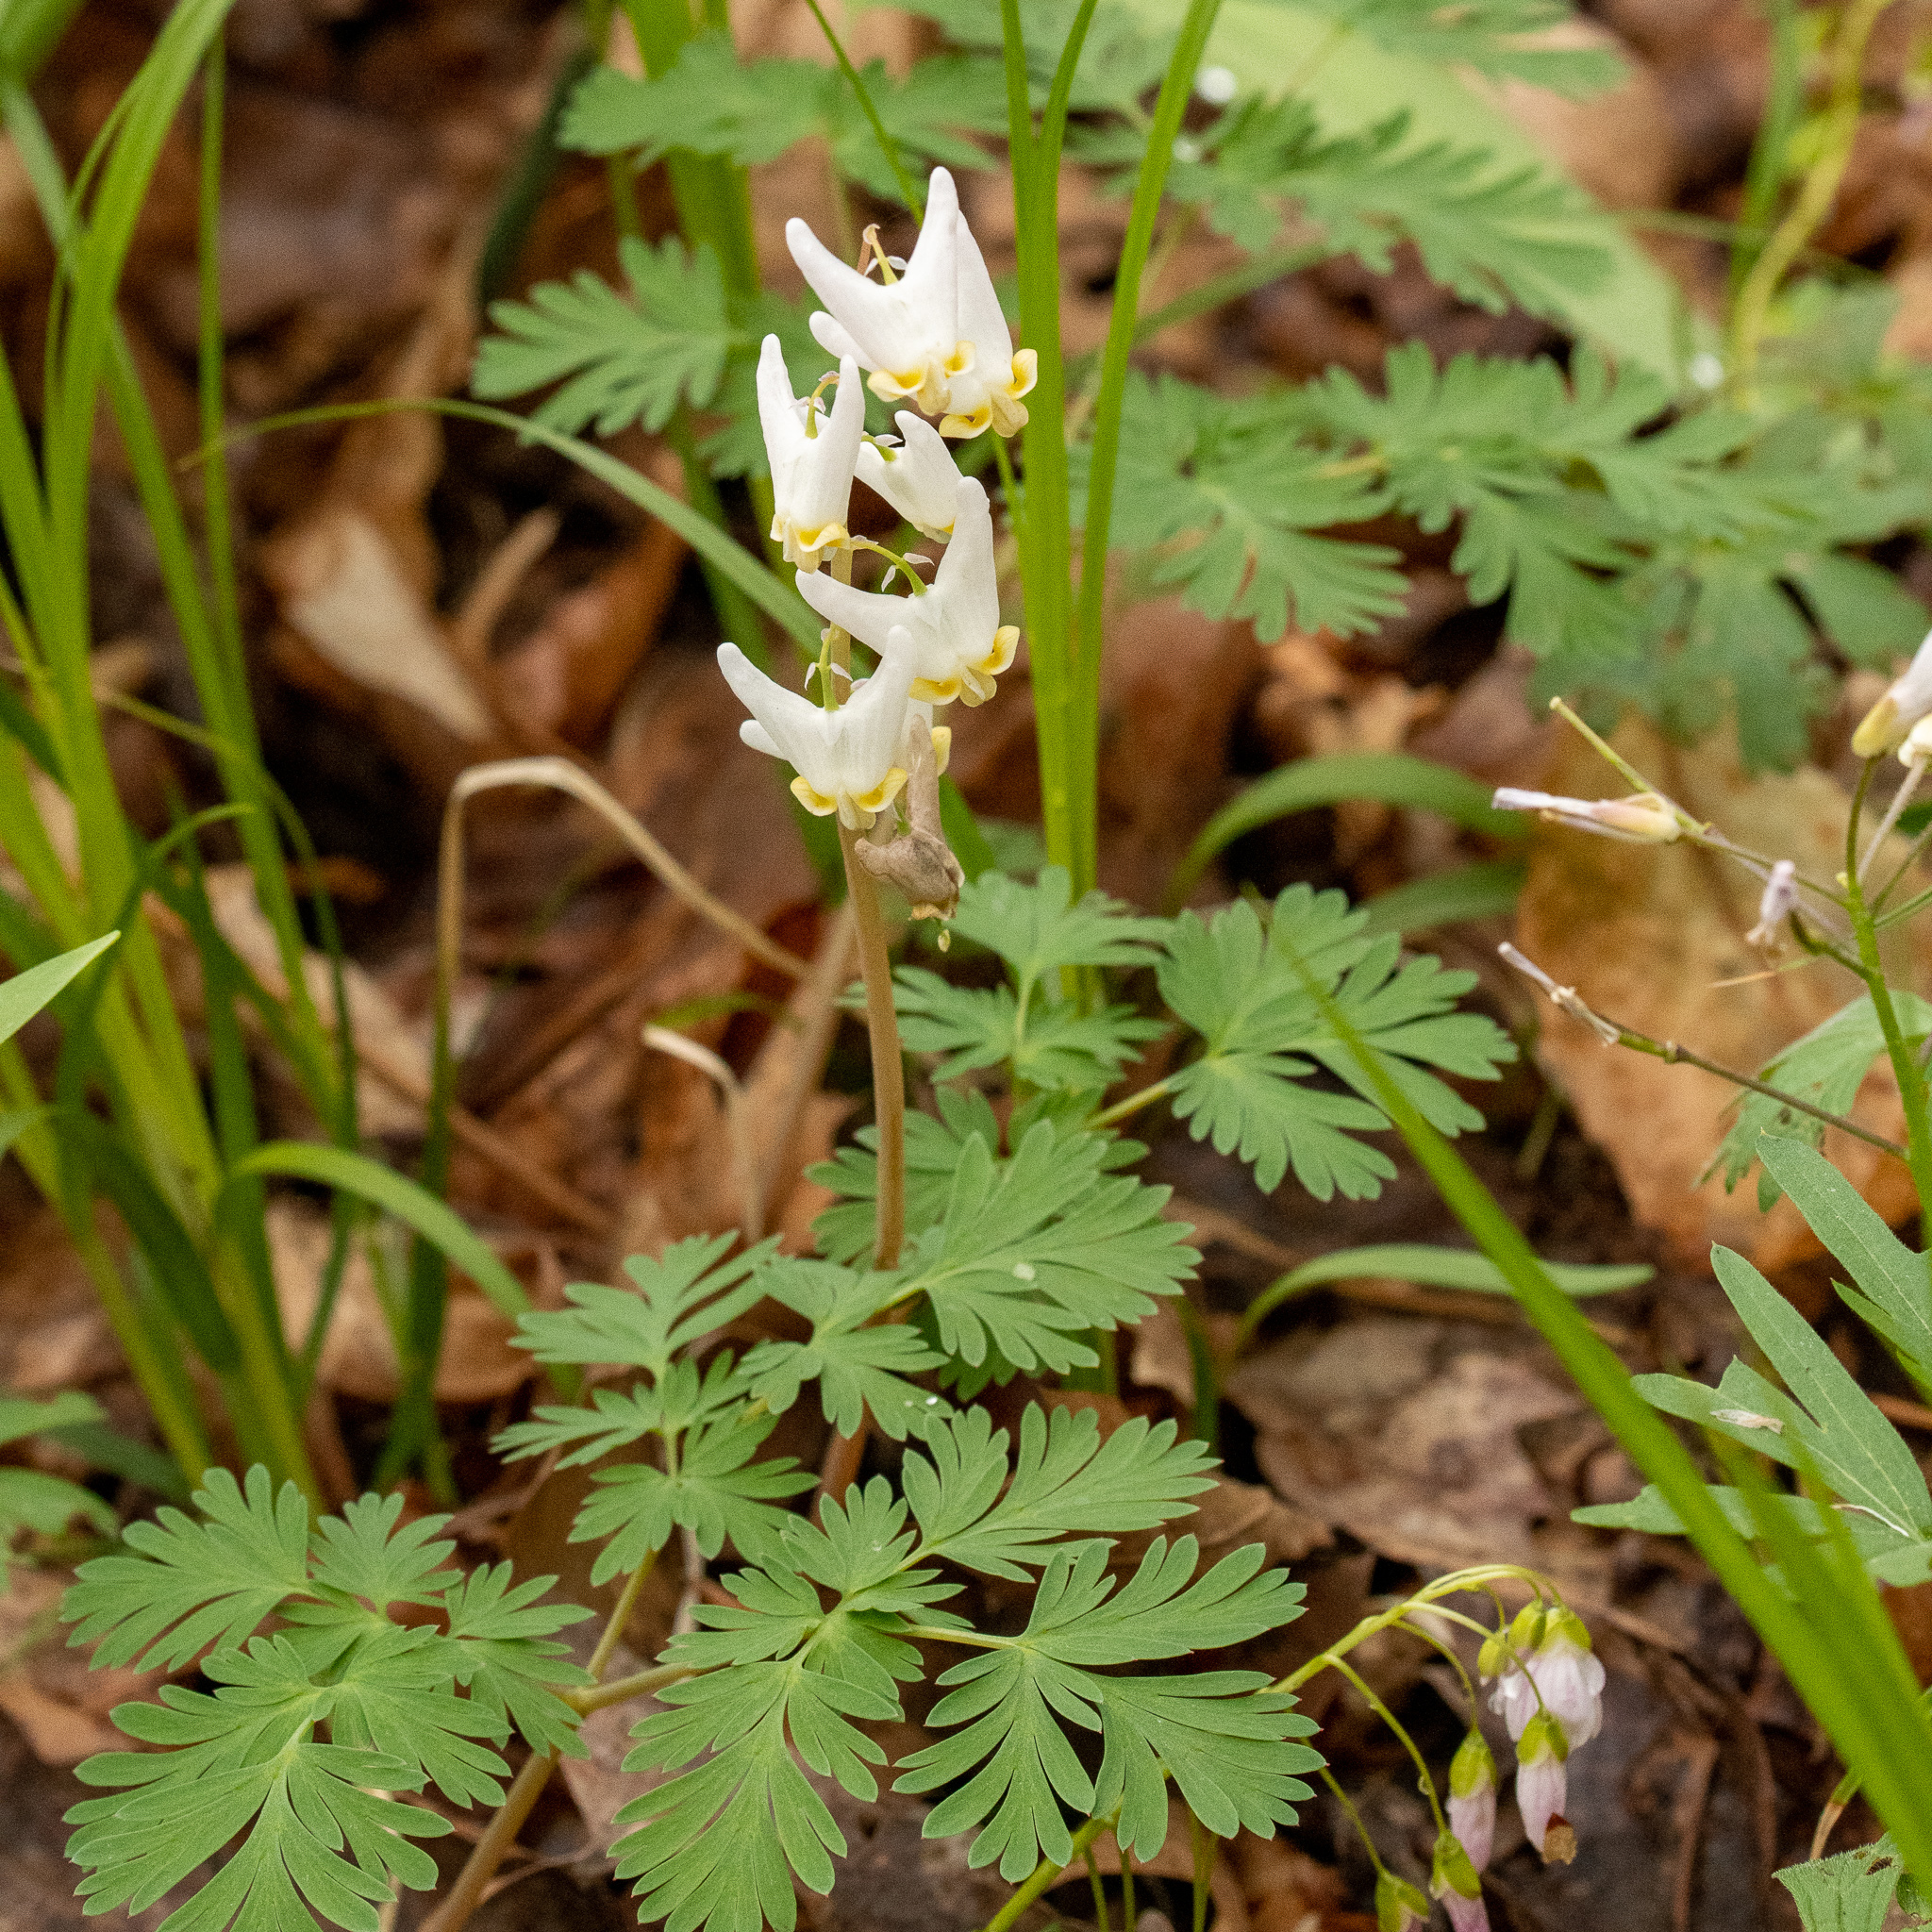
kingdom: Plantae
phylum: Tracheophyta
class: Magnoliopsida
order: Ranunculales
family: Papaveraceae
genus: Dicentra
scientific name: Dicentra cucullaria
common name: Dutchman's breeches
